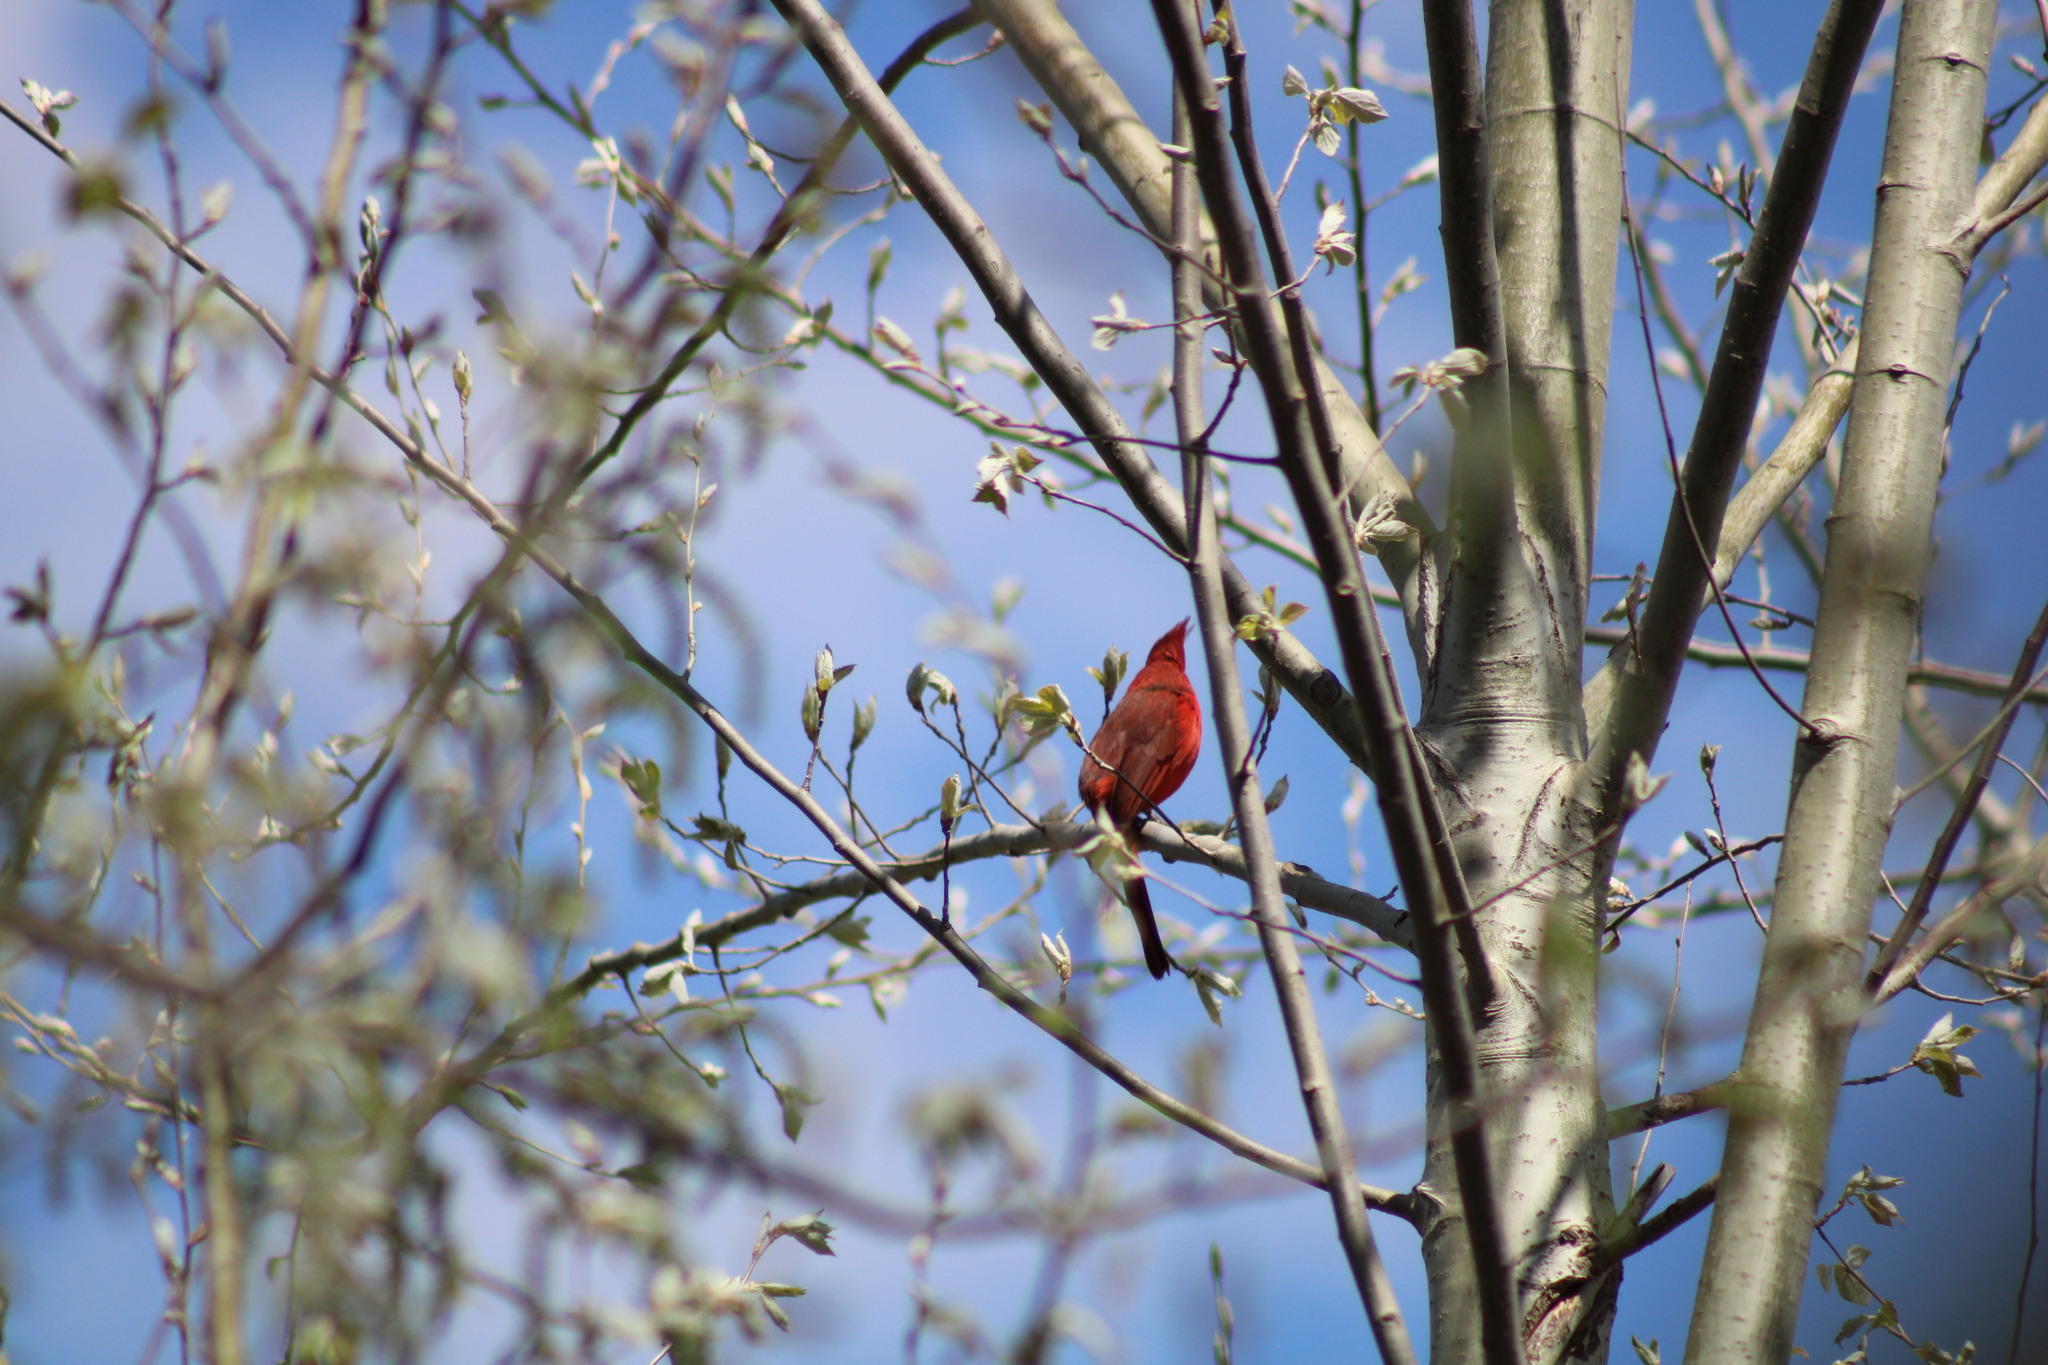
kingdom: Animalia
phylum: Chordata
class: Aves
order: Passeriformes
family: Cardinalidae
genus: Cardinalis
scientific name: Cardinalis cardinalis
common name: Northern cardinal
